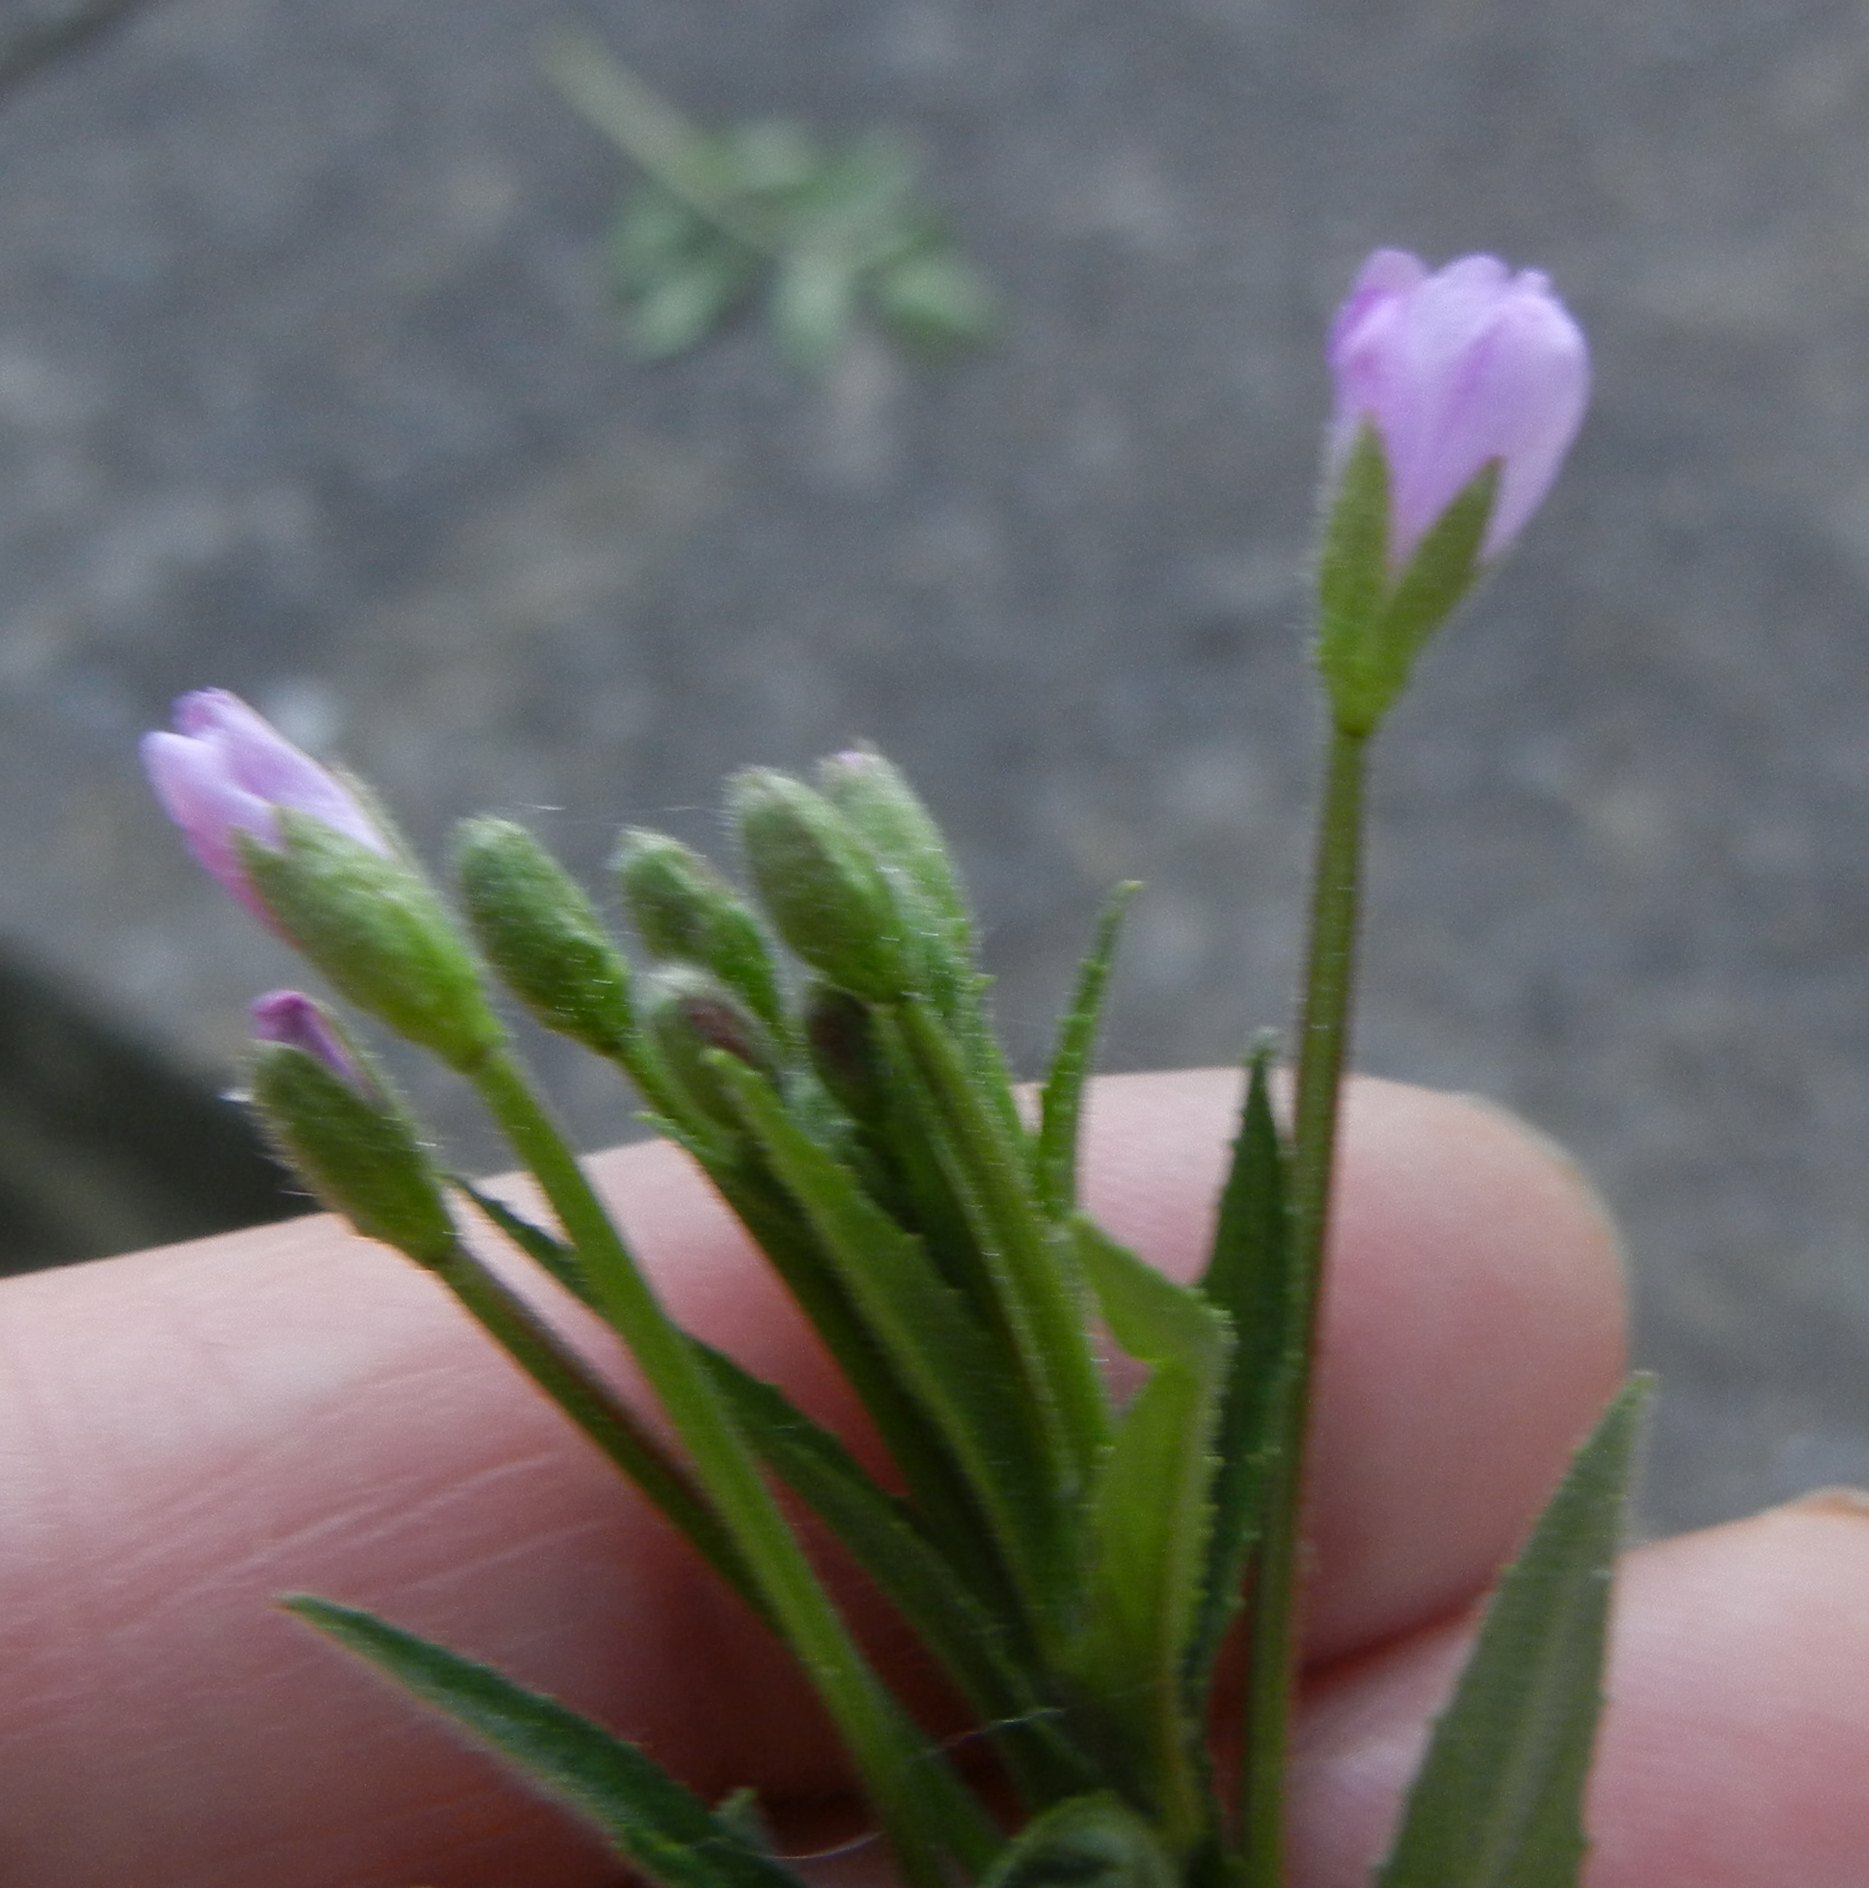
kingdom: Plantae
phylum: Tracheophyta
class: Magnoliopsida
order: Myrtales
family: Onagraceae
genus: Epilobium
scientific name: Epilobium parviflorum
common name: Hoary willowherb
